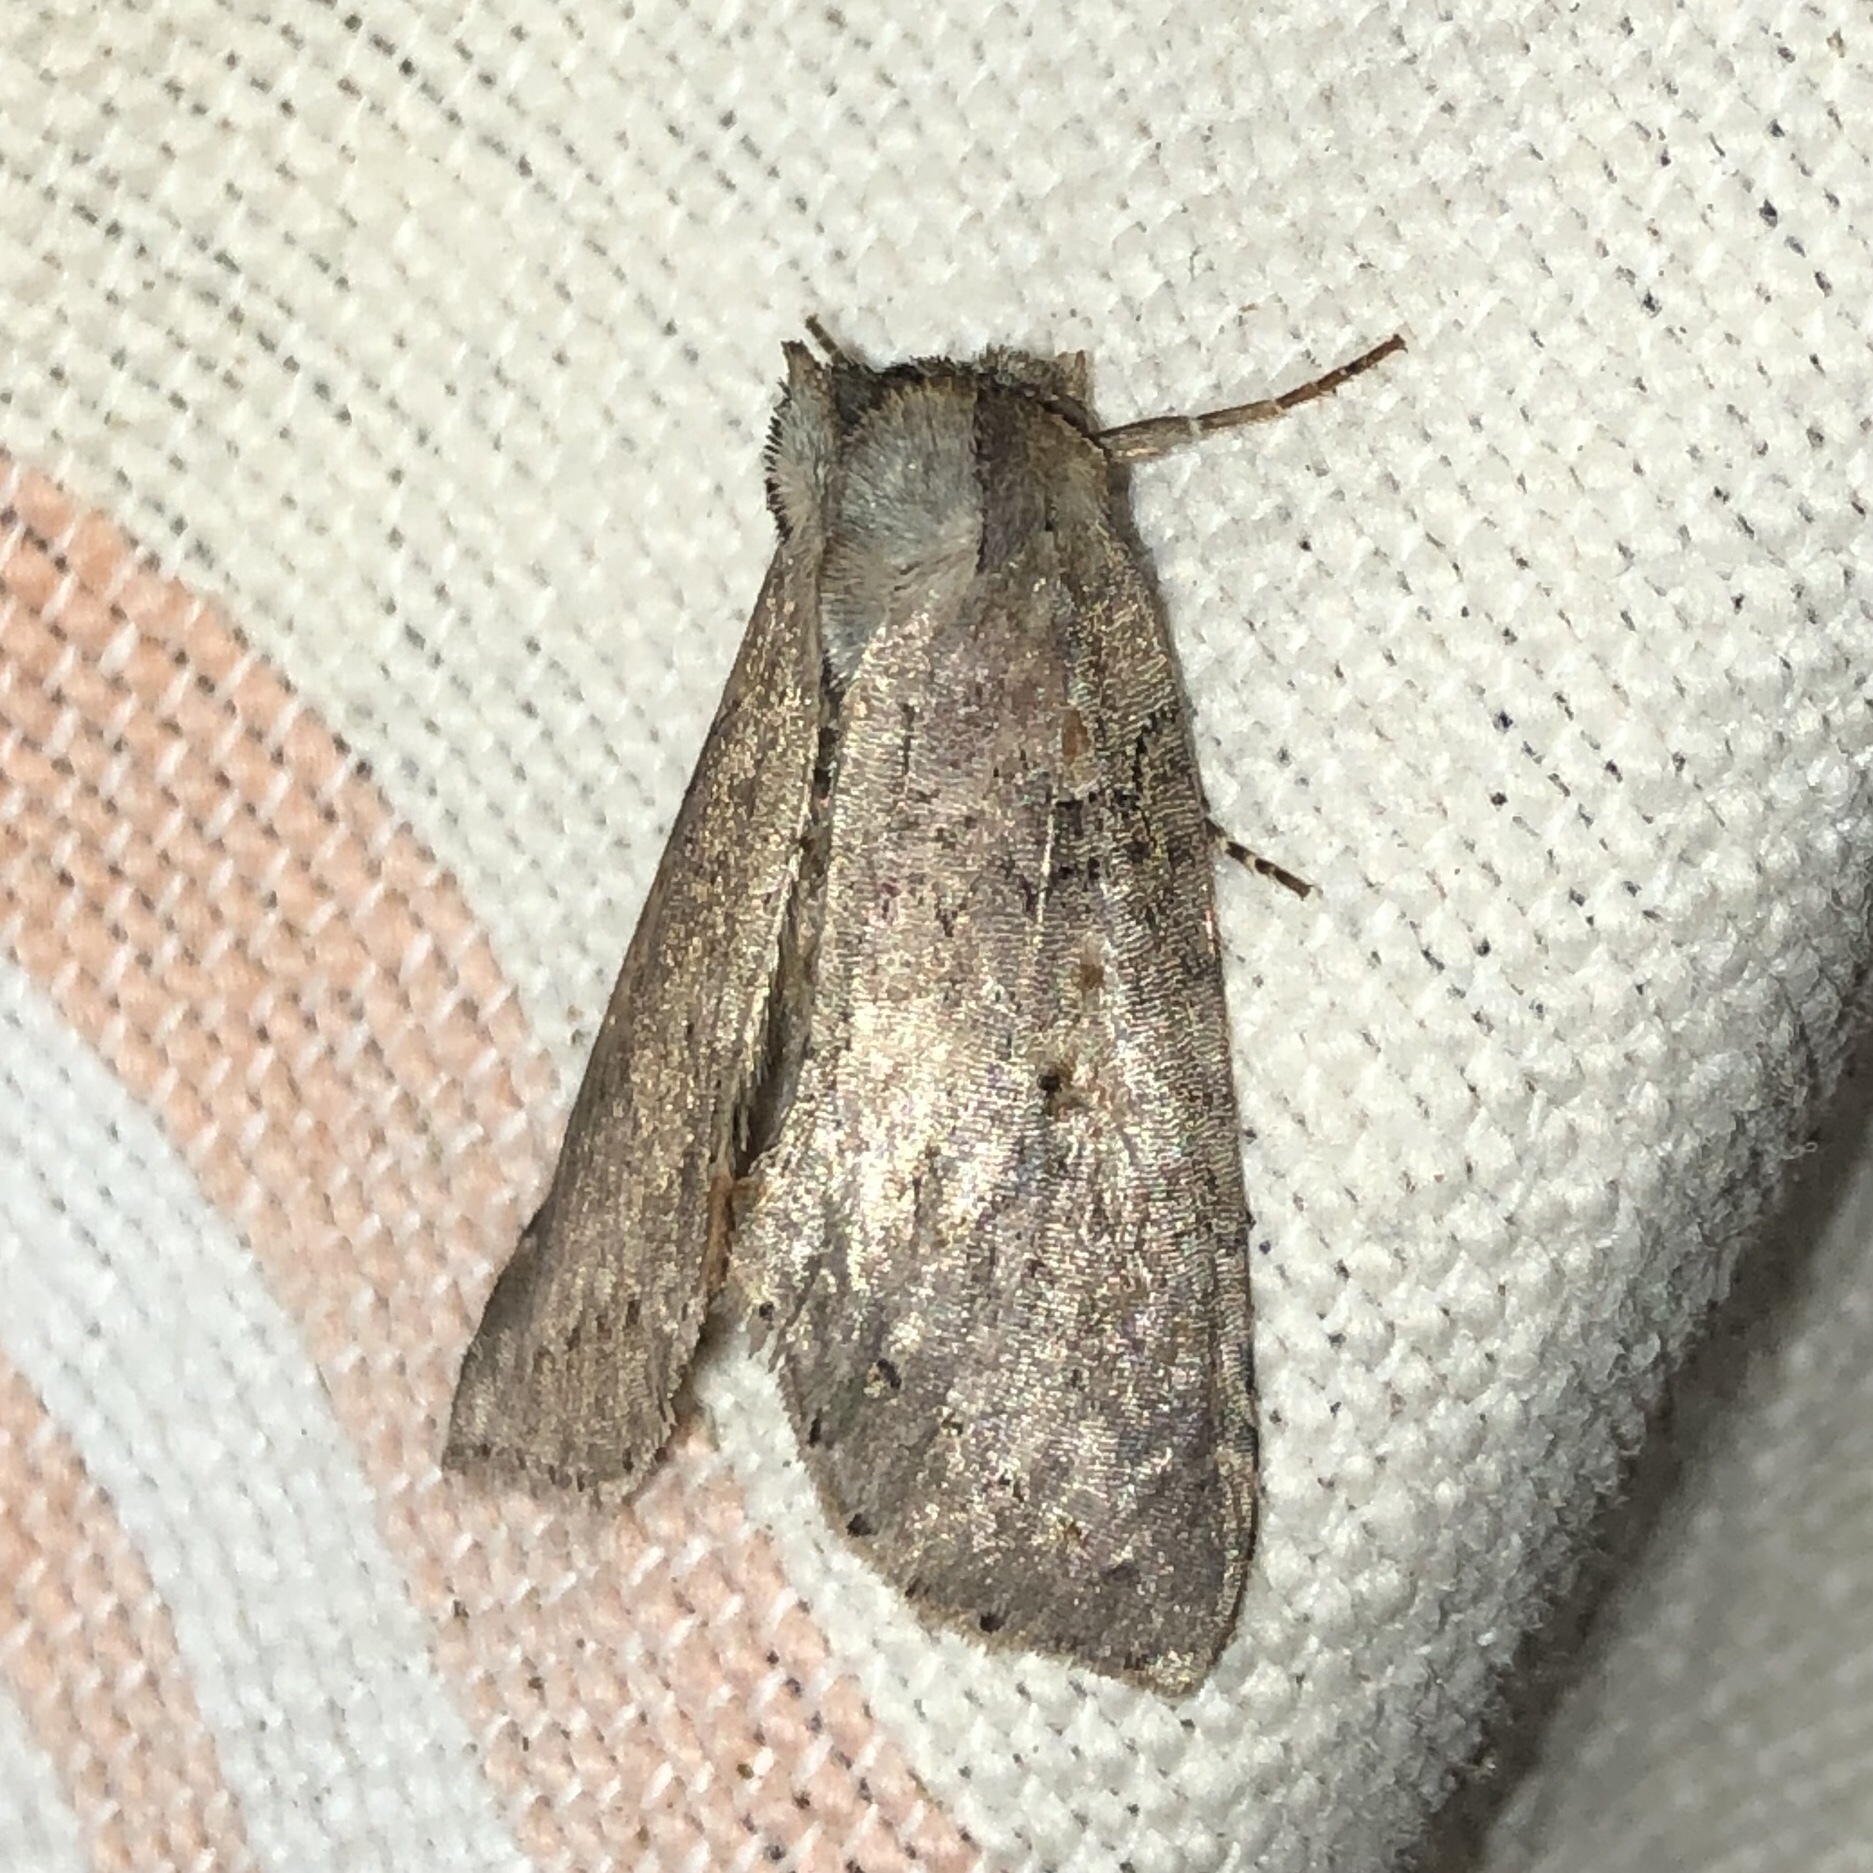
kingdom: Animalia
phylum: Arthropoda
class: Insecta
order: Lepidoptera
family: Drepanidae
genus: Pseudothyatira
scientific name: Pseudothyatira cymatophoroides
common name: Tufted thyatirid moth
